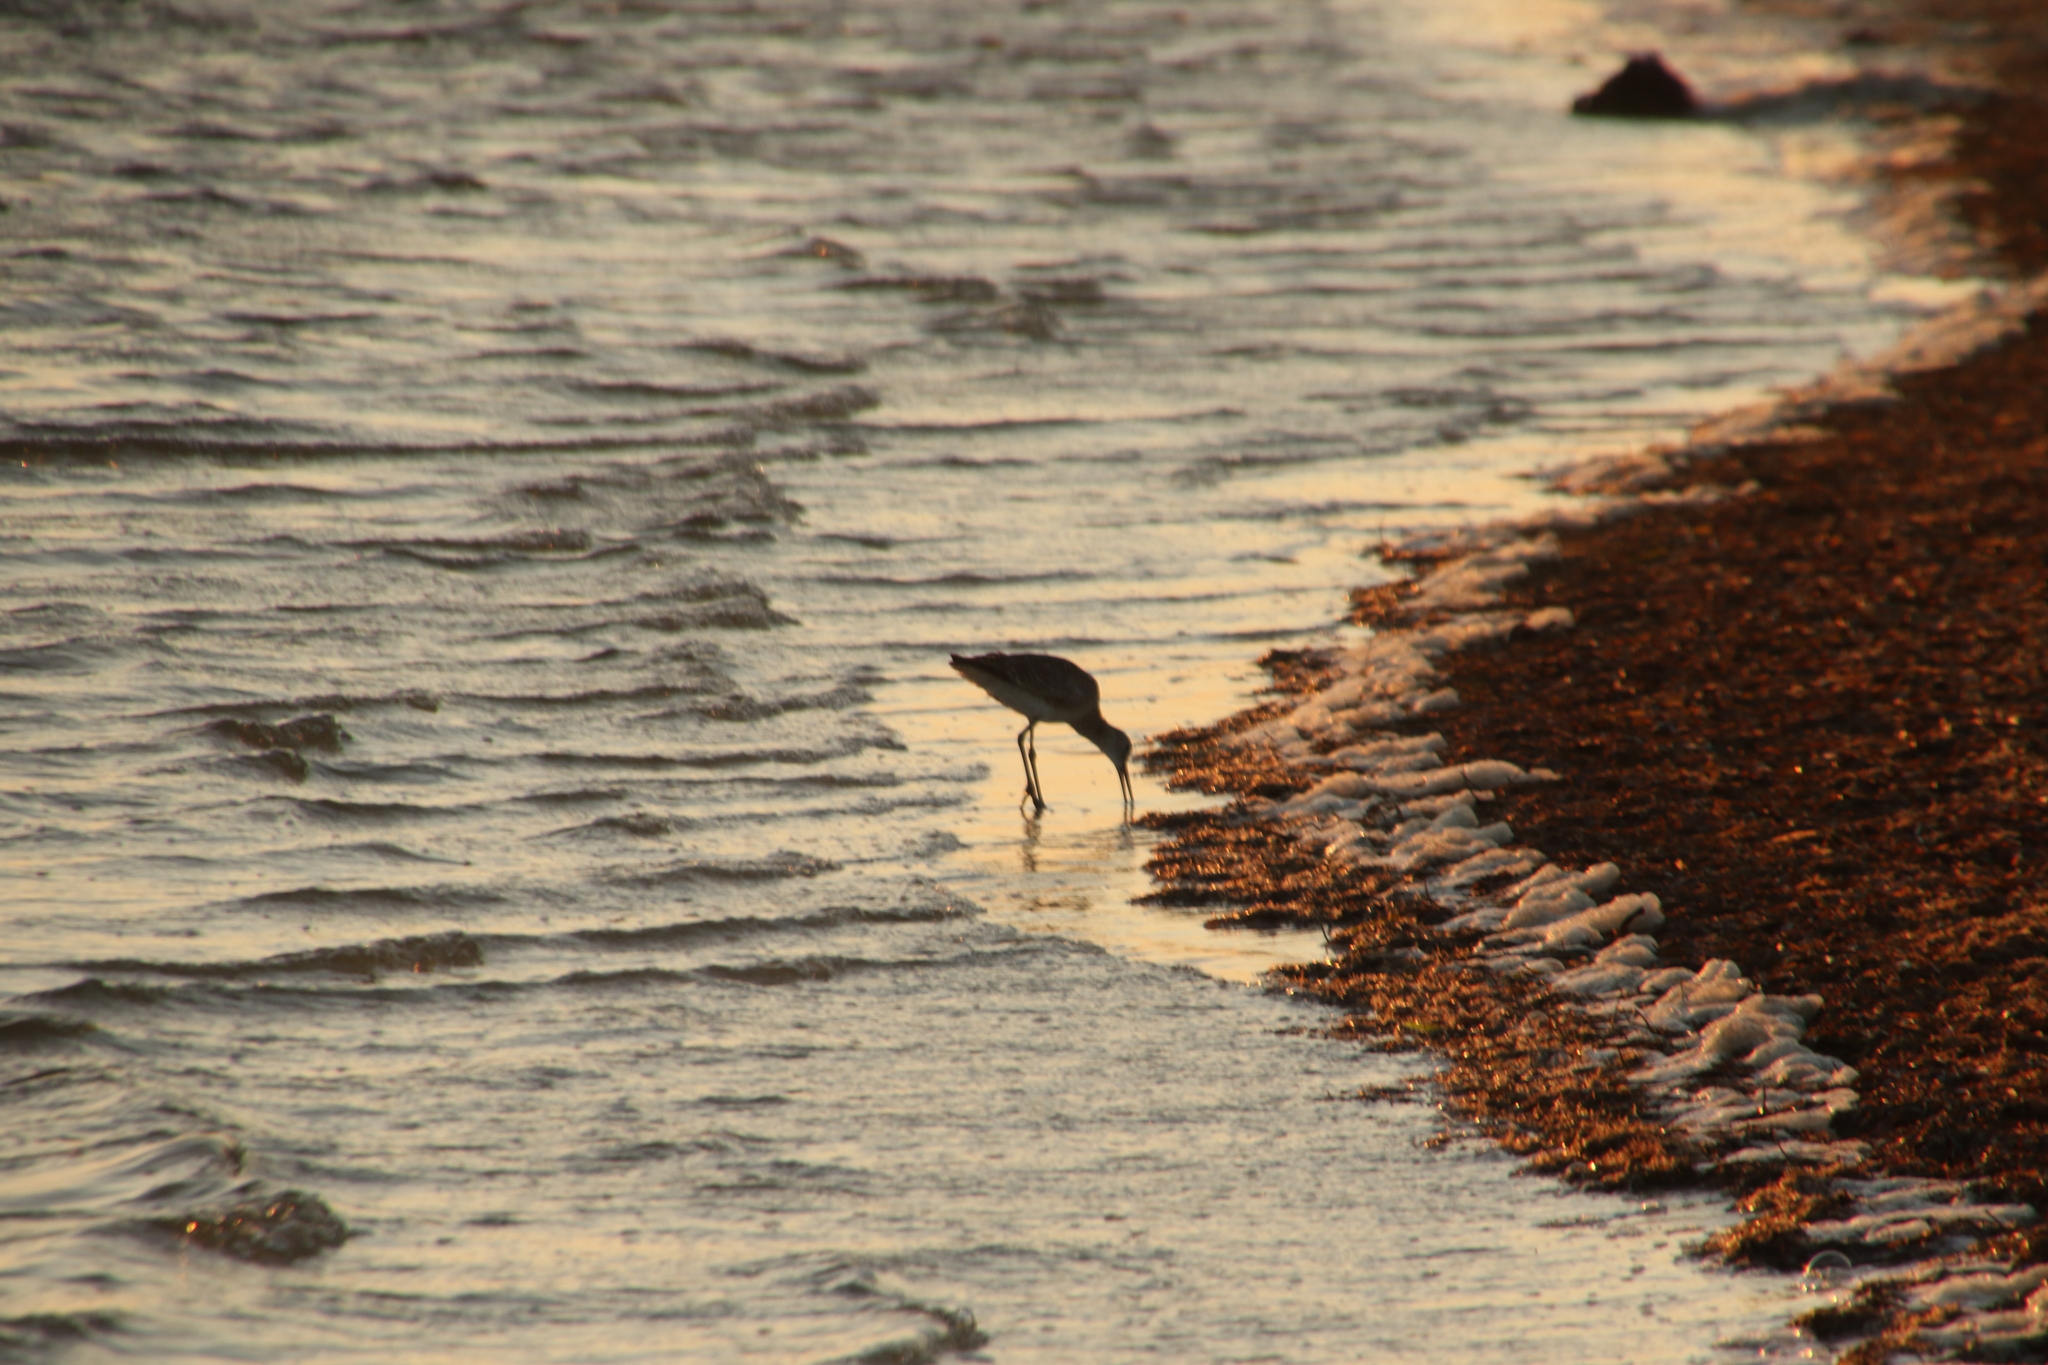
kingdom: Animalia
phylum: Chordata
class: Aves
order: Charadriiformes
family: Scolopacidae
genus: Tringa
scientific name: Tringa semipalmata
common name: Willet
